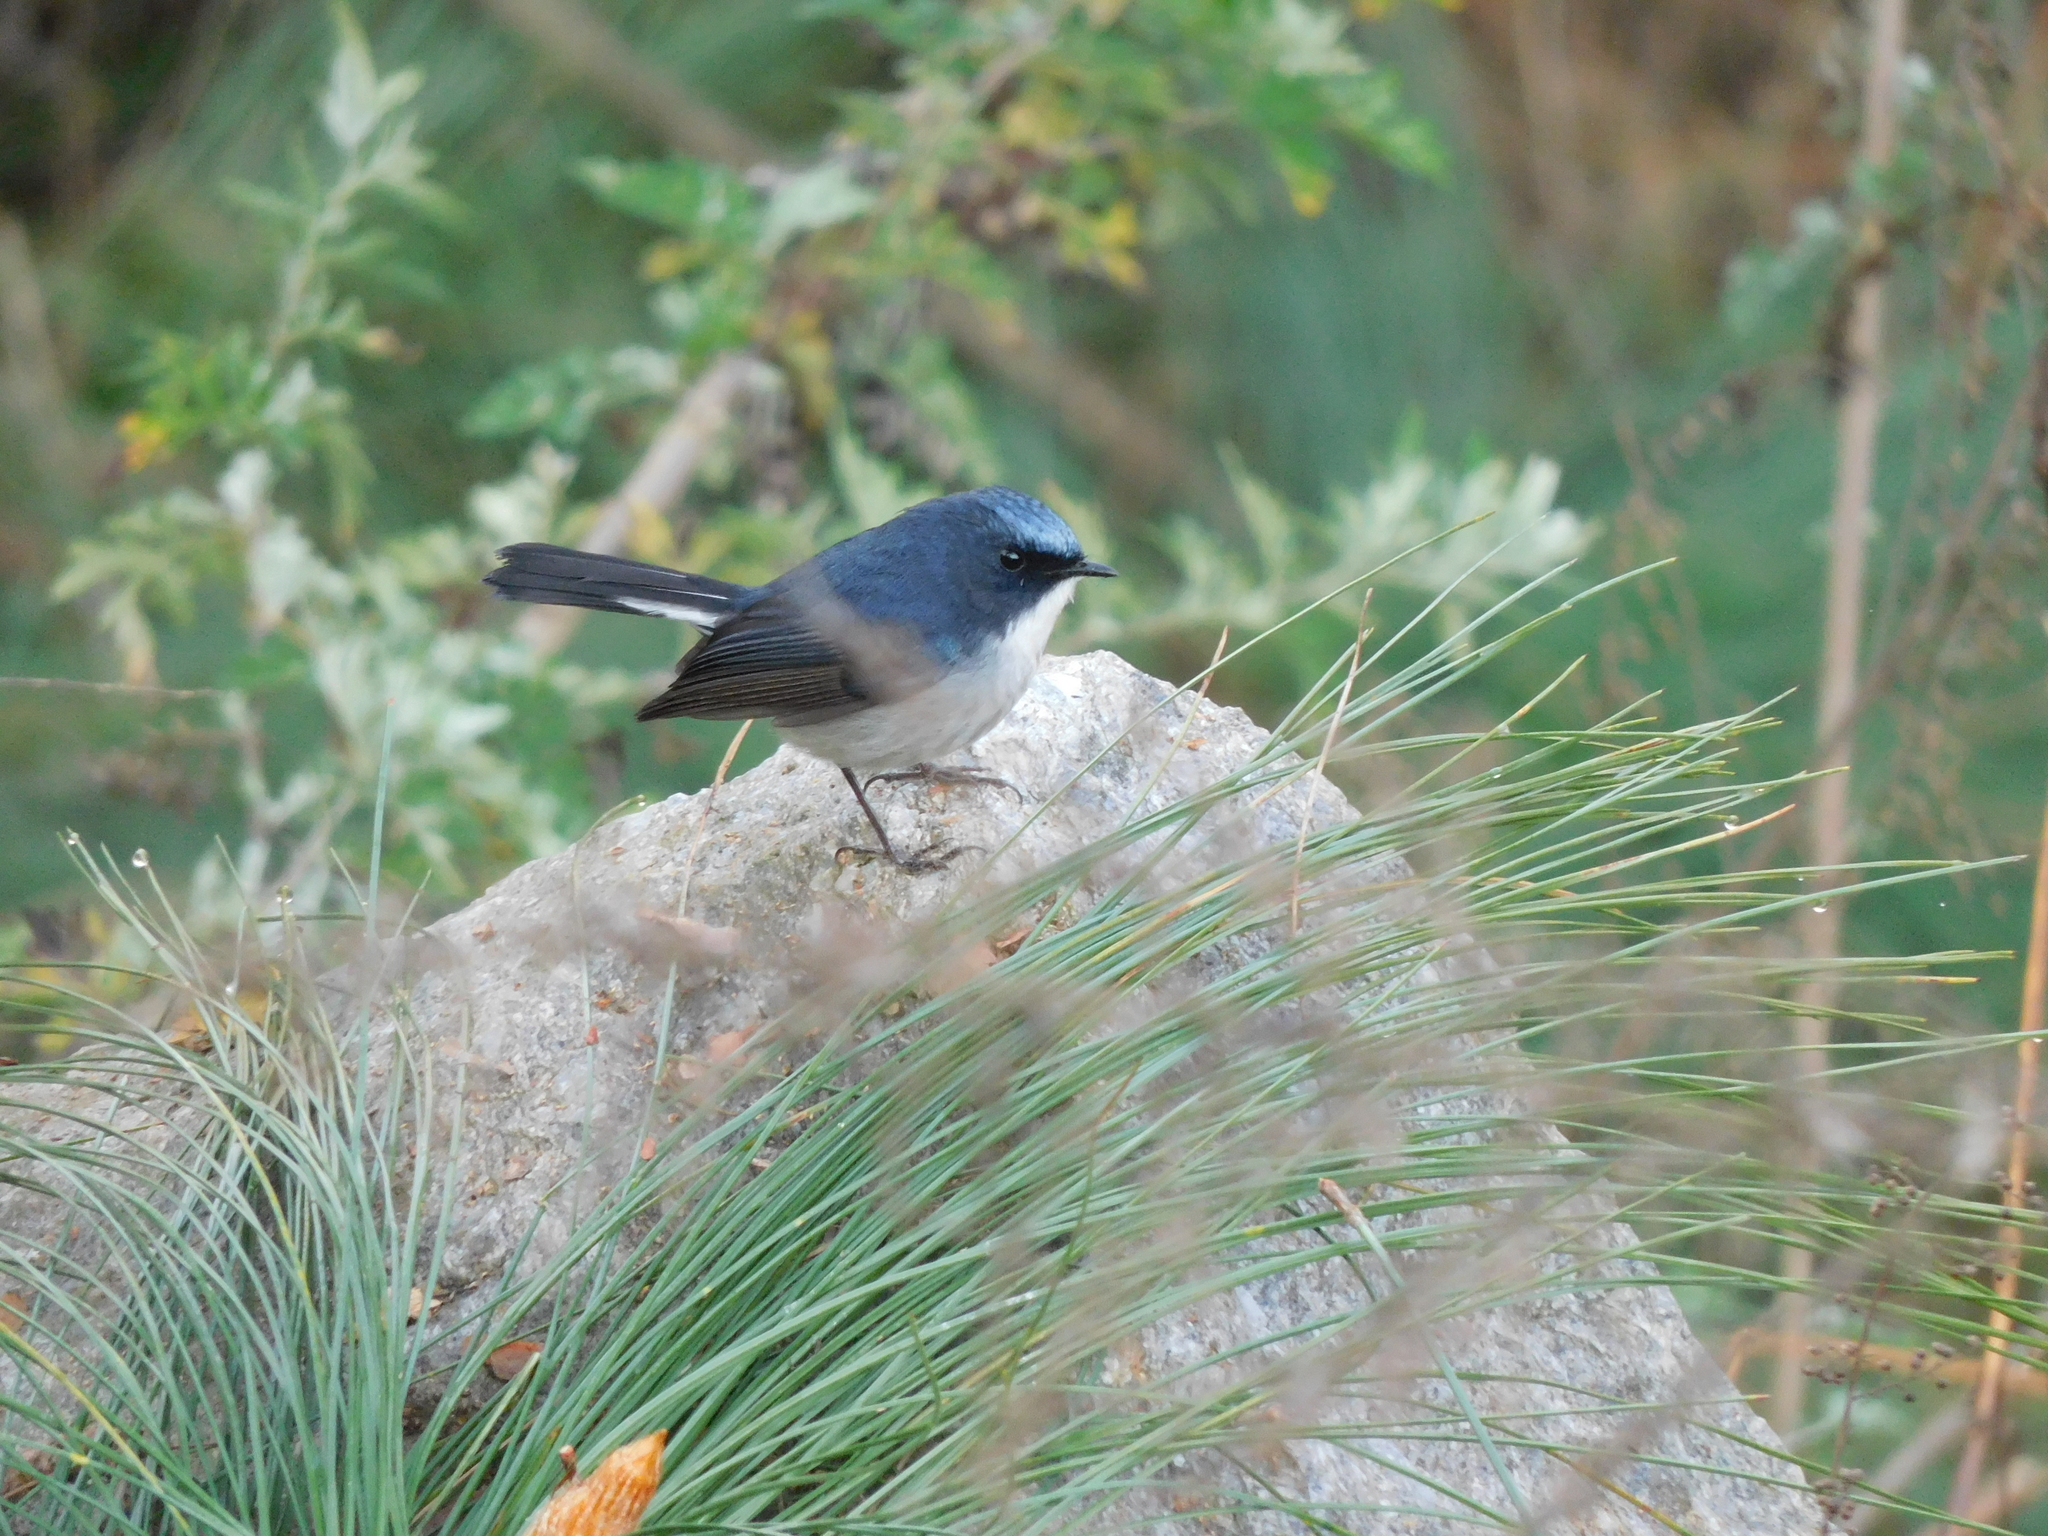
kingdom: Animalia
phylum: Chordata
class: Aves
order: Passeriformes
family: Muscicapidae
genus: Ficedula
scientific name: Ficedula tricolor
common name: Slaty-blue flycatcher
